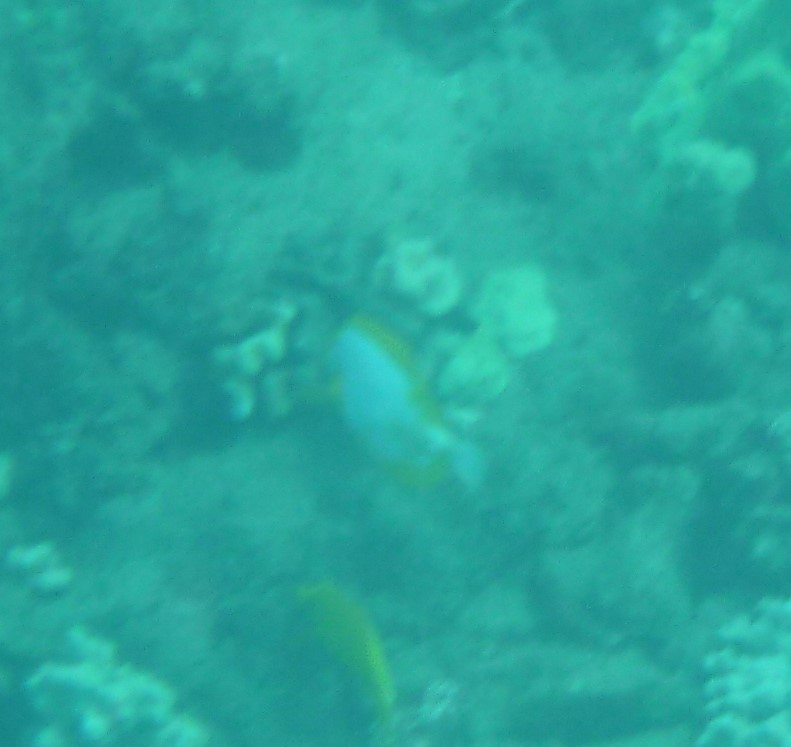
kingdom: Animalia
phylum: Chordata
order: Perciformes
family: Acanthuridae
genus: Zebrasoma
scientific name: Zebrasoma flavescens
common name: Yellow tang
